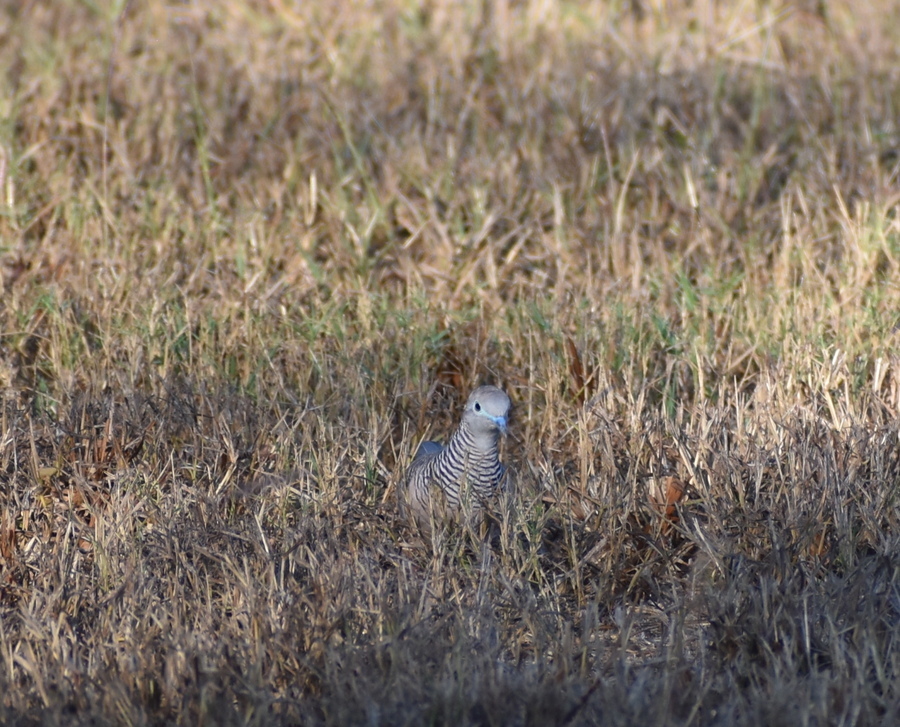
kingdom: Animalia
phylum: Chordata
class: Aves
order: Columbiformes
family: Columbidae
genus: Geopelia
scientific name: Geopelia placida
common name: Peaceful dove
